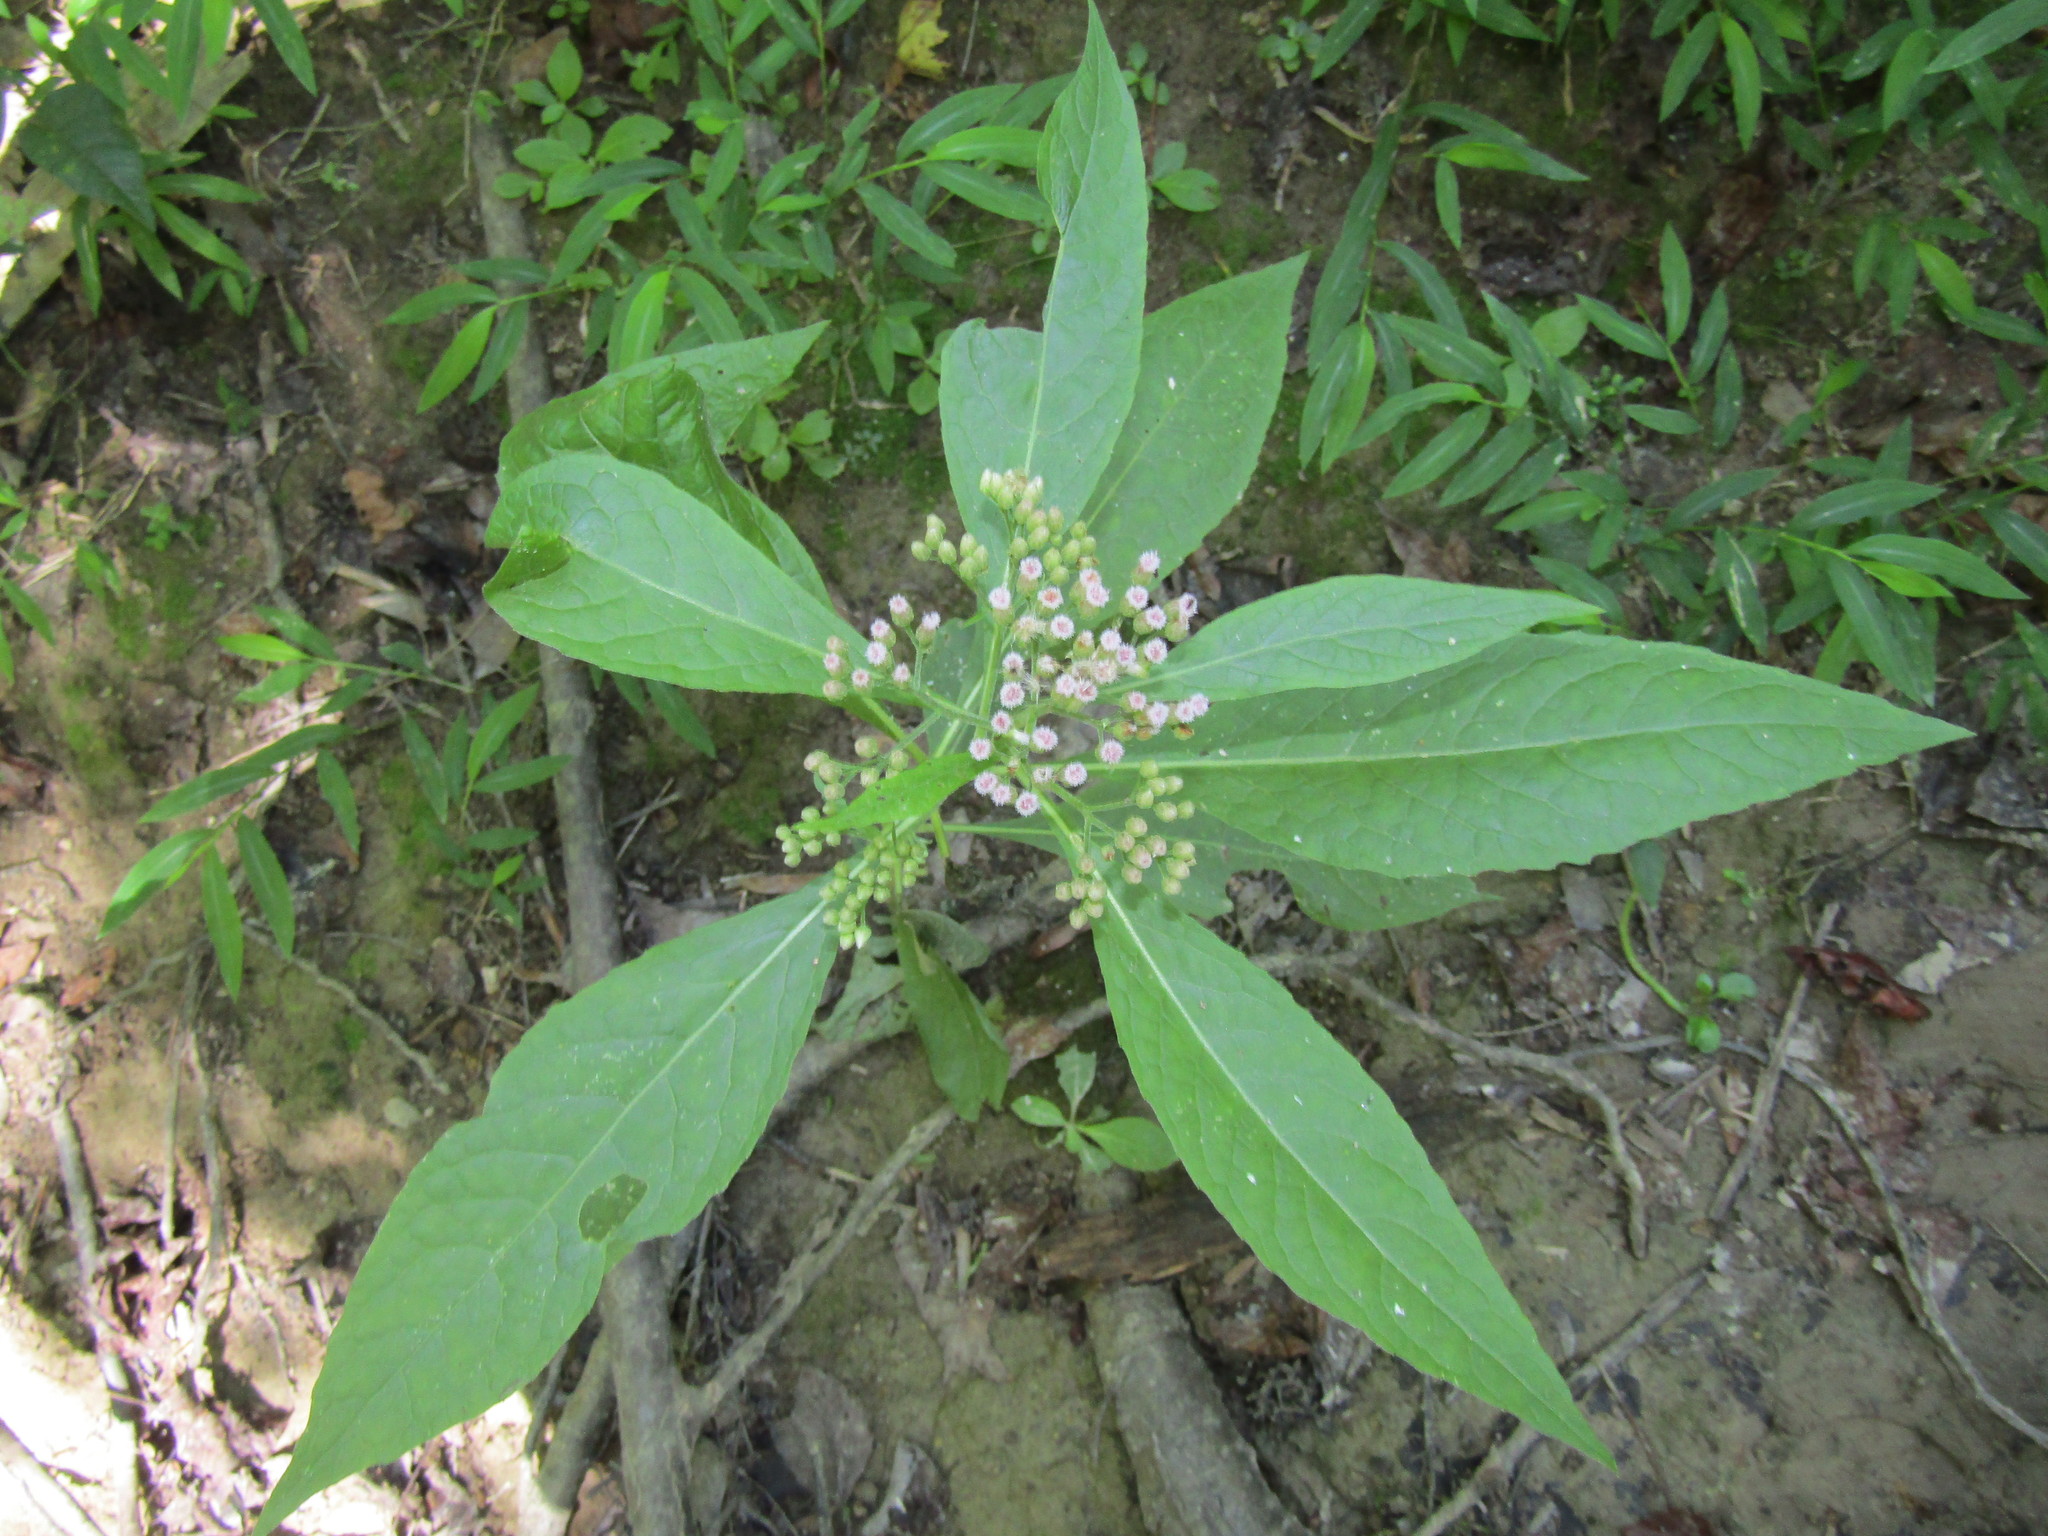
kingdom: Plantae
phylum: Tracheophyta
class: Magnoliopsida
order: Asterales
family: Asteraceae
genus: Pluchea
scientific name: Pluchea camphorata
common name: Camphor pluchea
